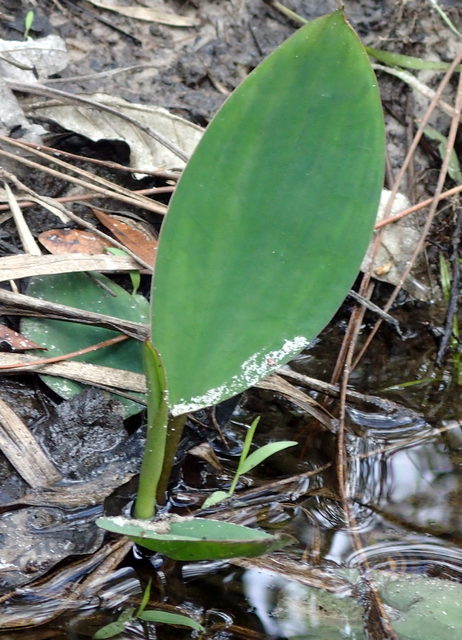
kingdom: Plantae
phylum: Tracheophyta
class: Liliopsida
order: Alismatales
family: Araceae
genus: Orontium
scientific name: Orontium aquaticum
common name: Golden-club
